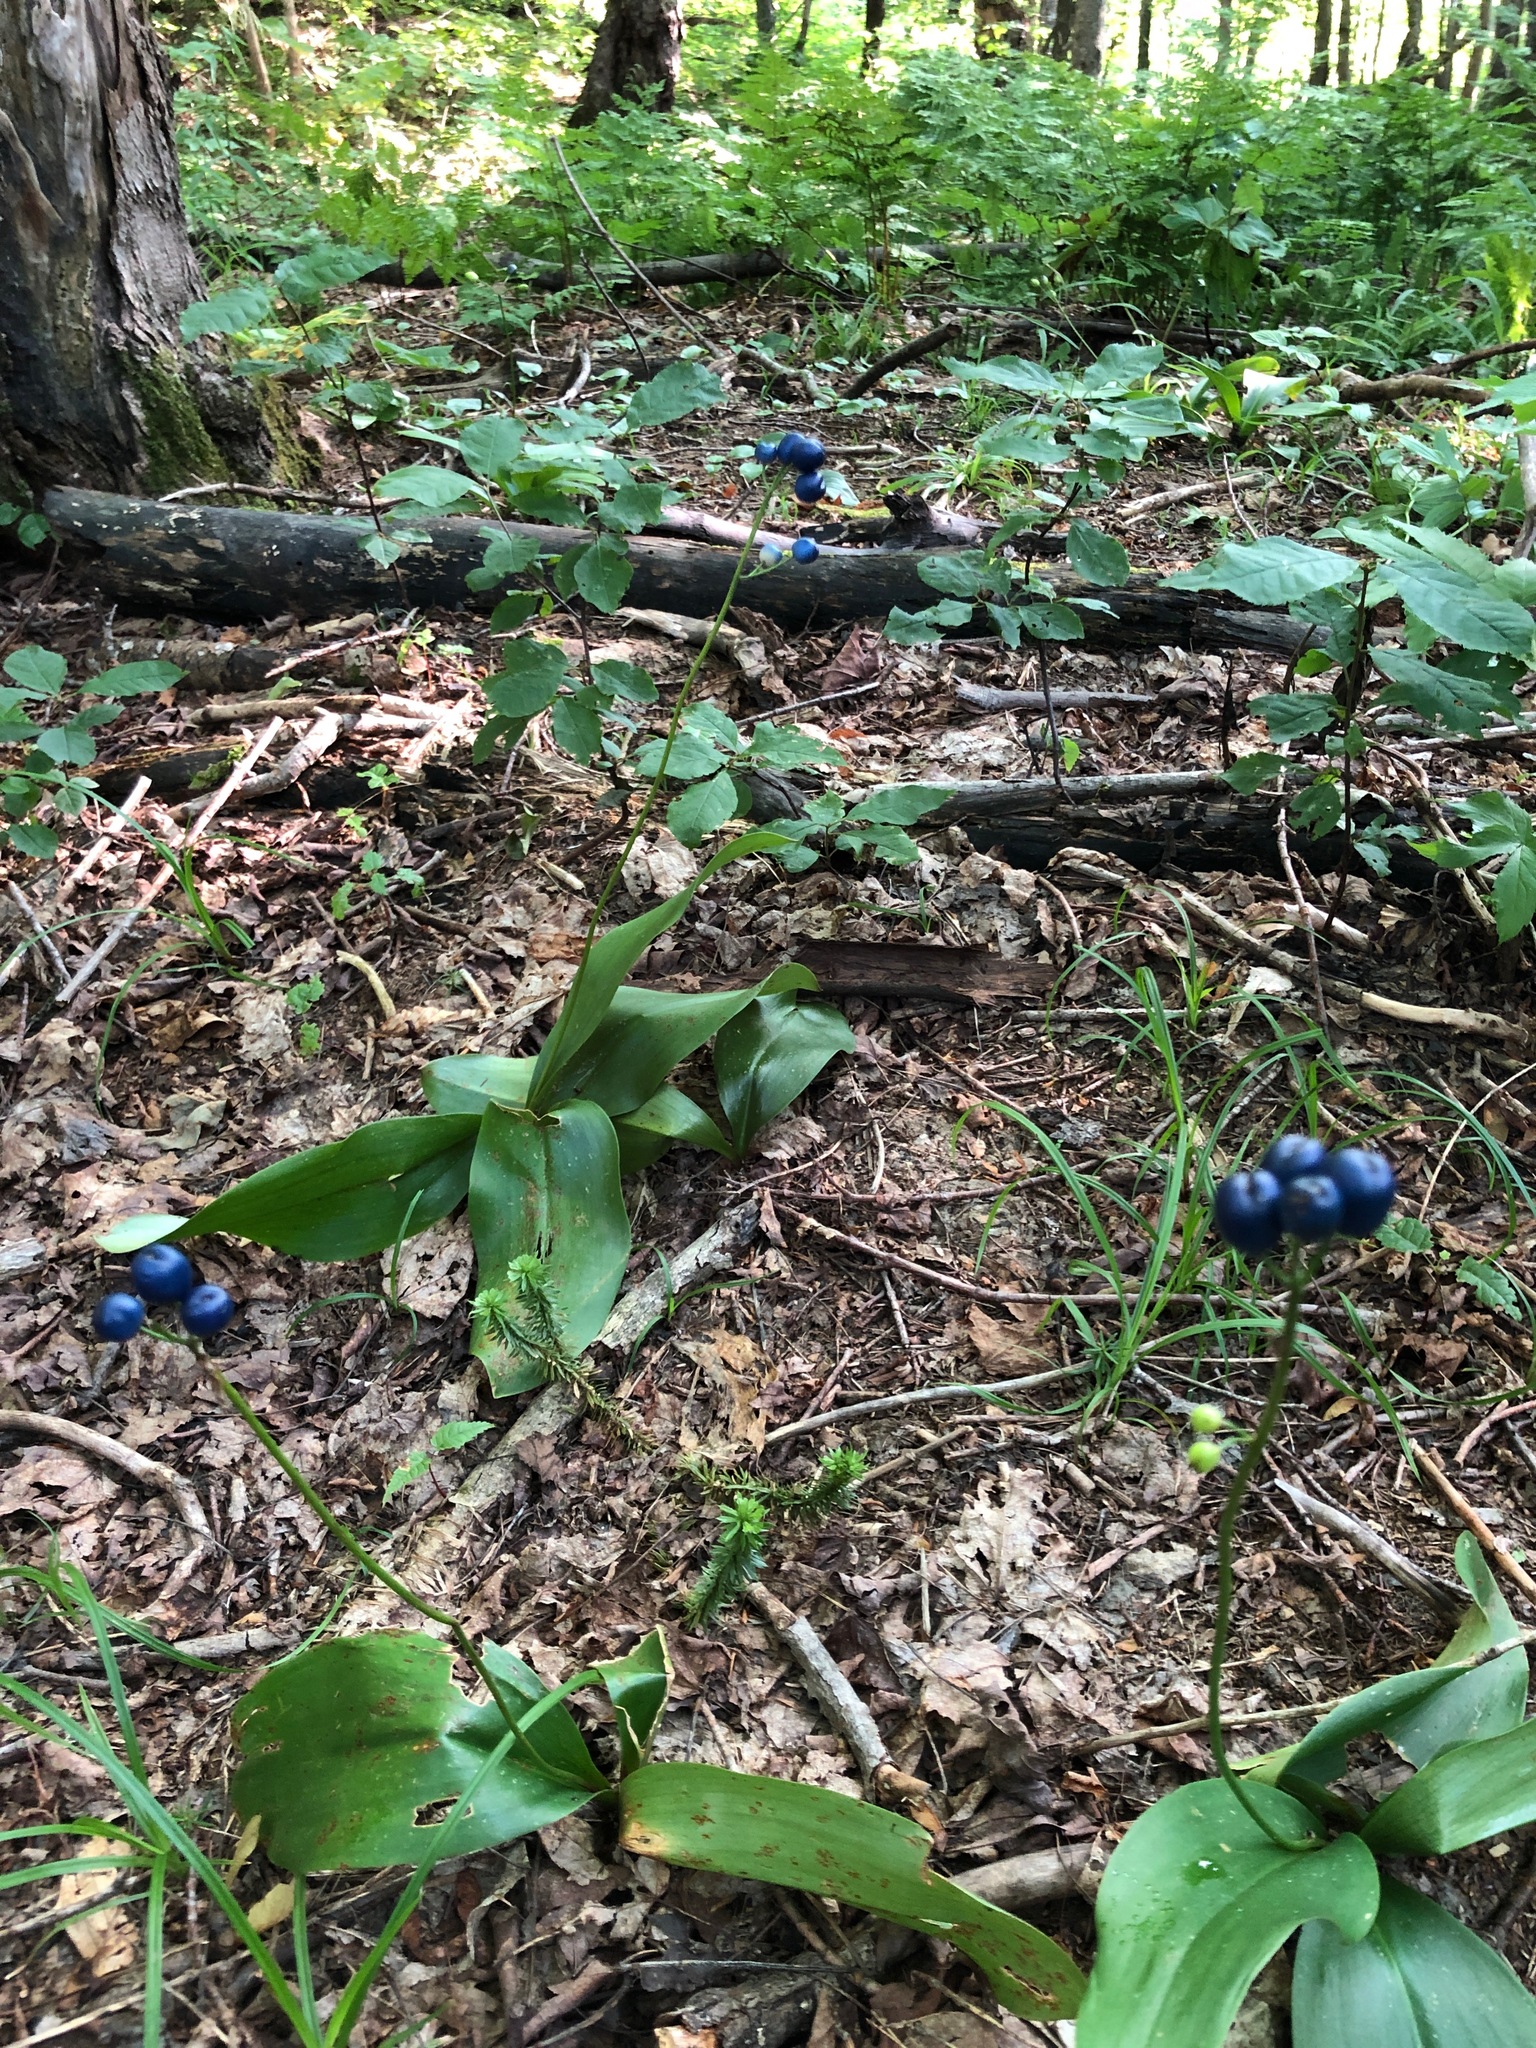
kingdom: Plantae
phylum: Tracheophyta
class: Liliopsida
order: Liliales
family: Liliaceae
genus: Clintonia
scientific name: Clintonia borealis
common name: Yellow clintonia
